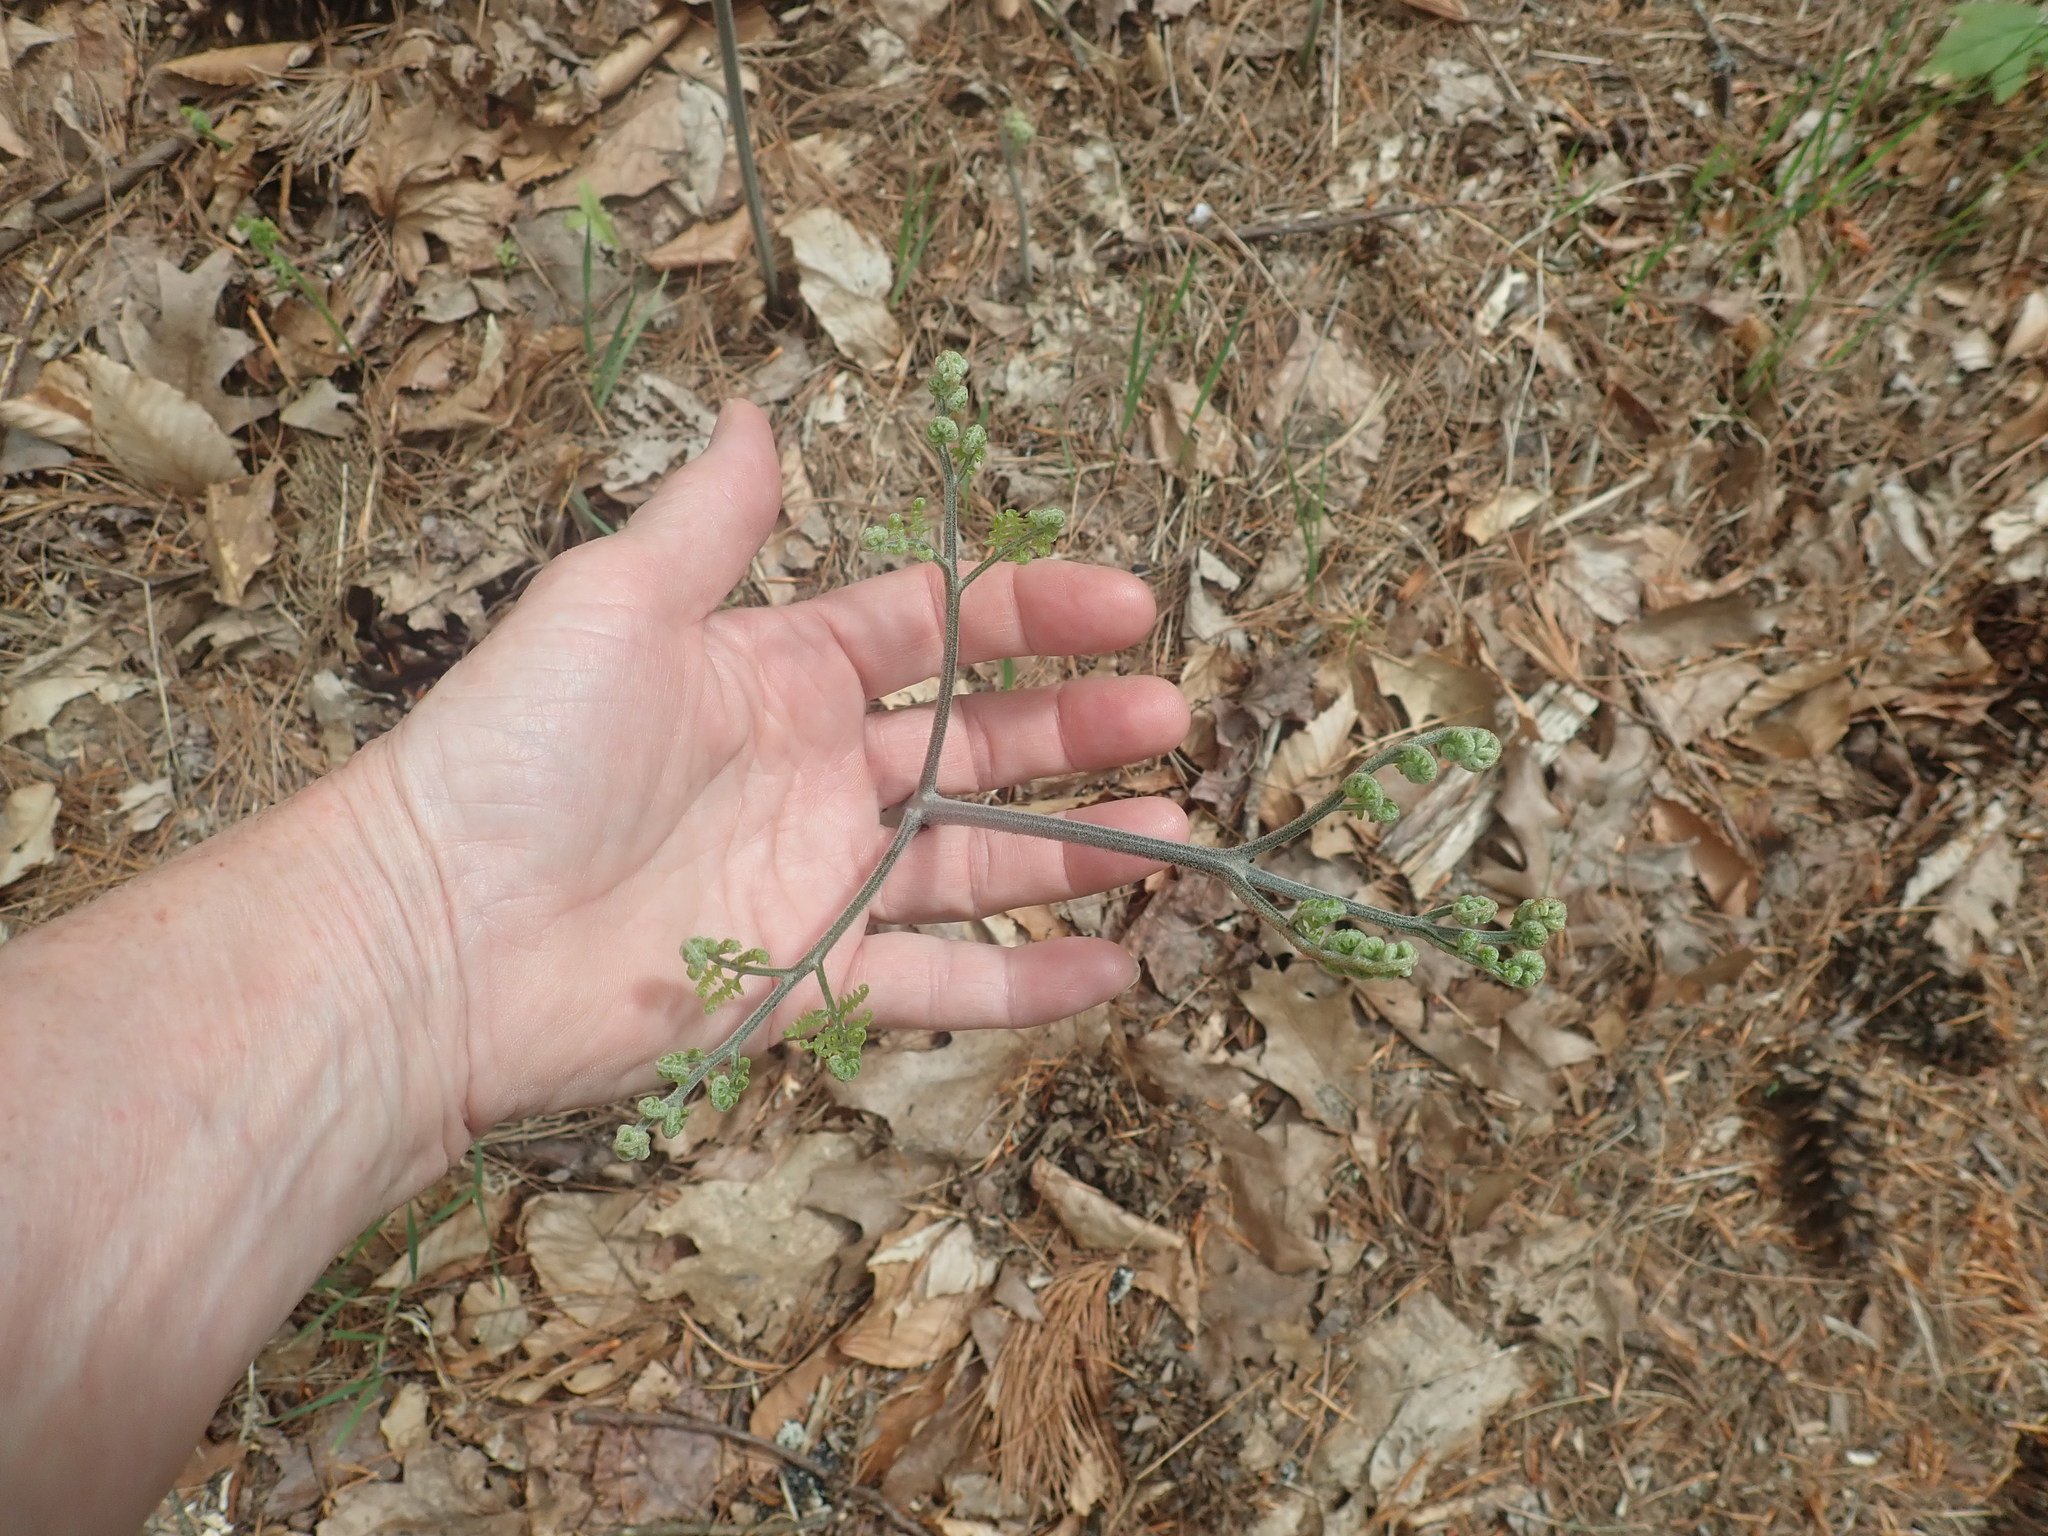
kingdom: Plantae
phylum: Tracheophyta
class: Polypodiopsida
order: Polypodiales
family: Dennstaedtiaceae
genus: Pteridium
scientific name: Pteridium aquilinum
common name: Bracken
